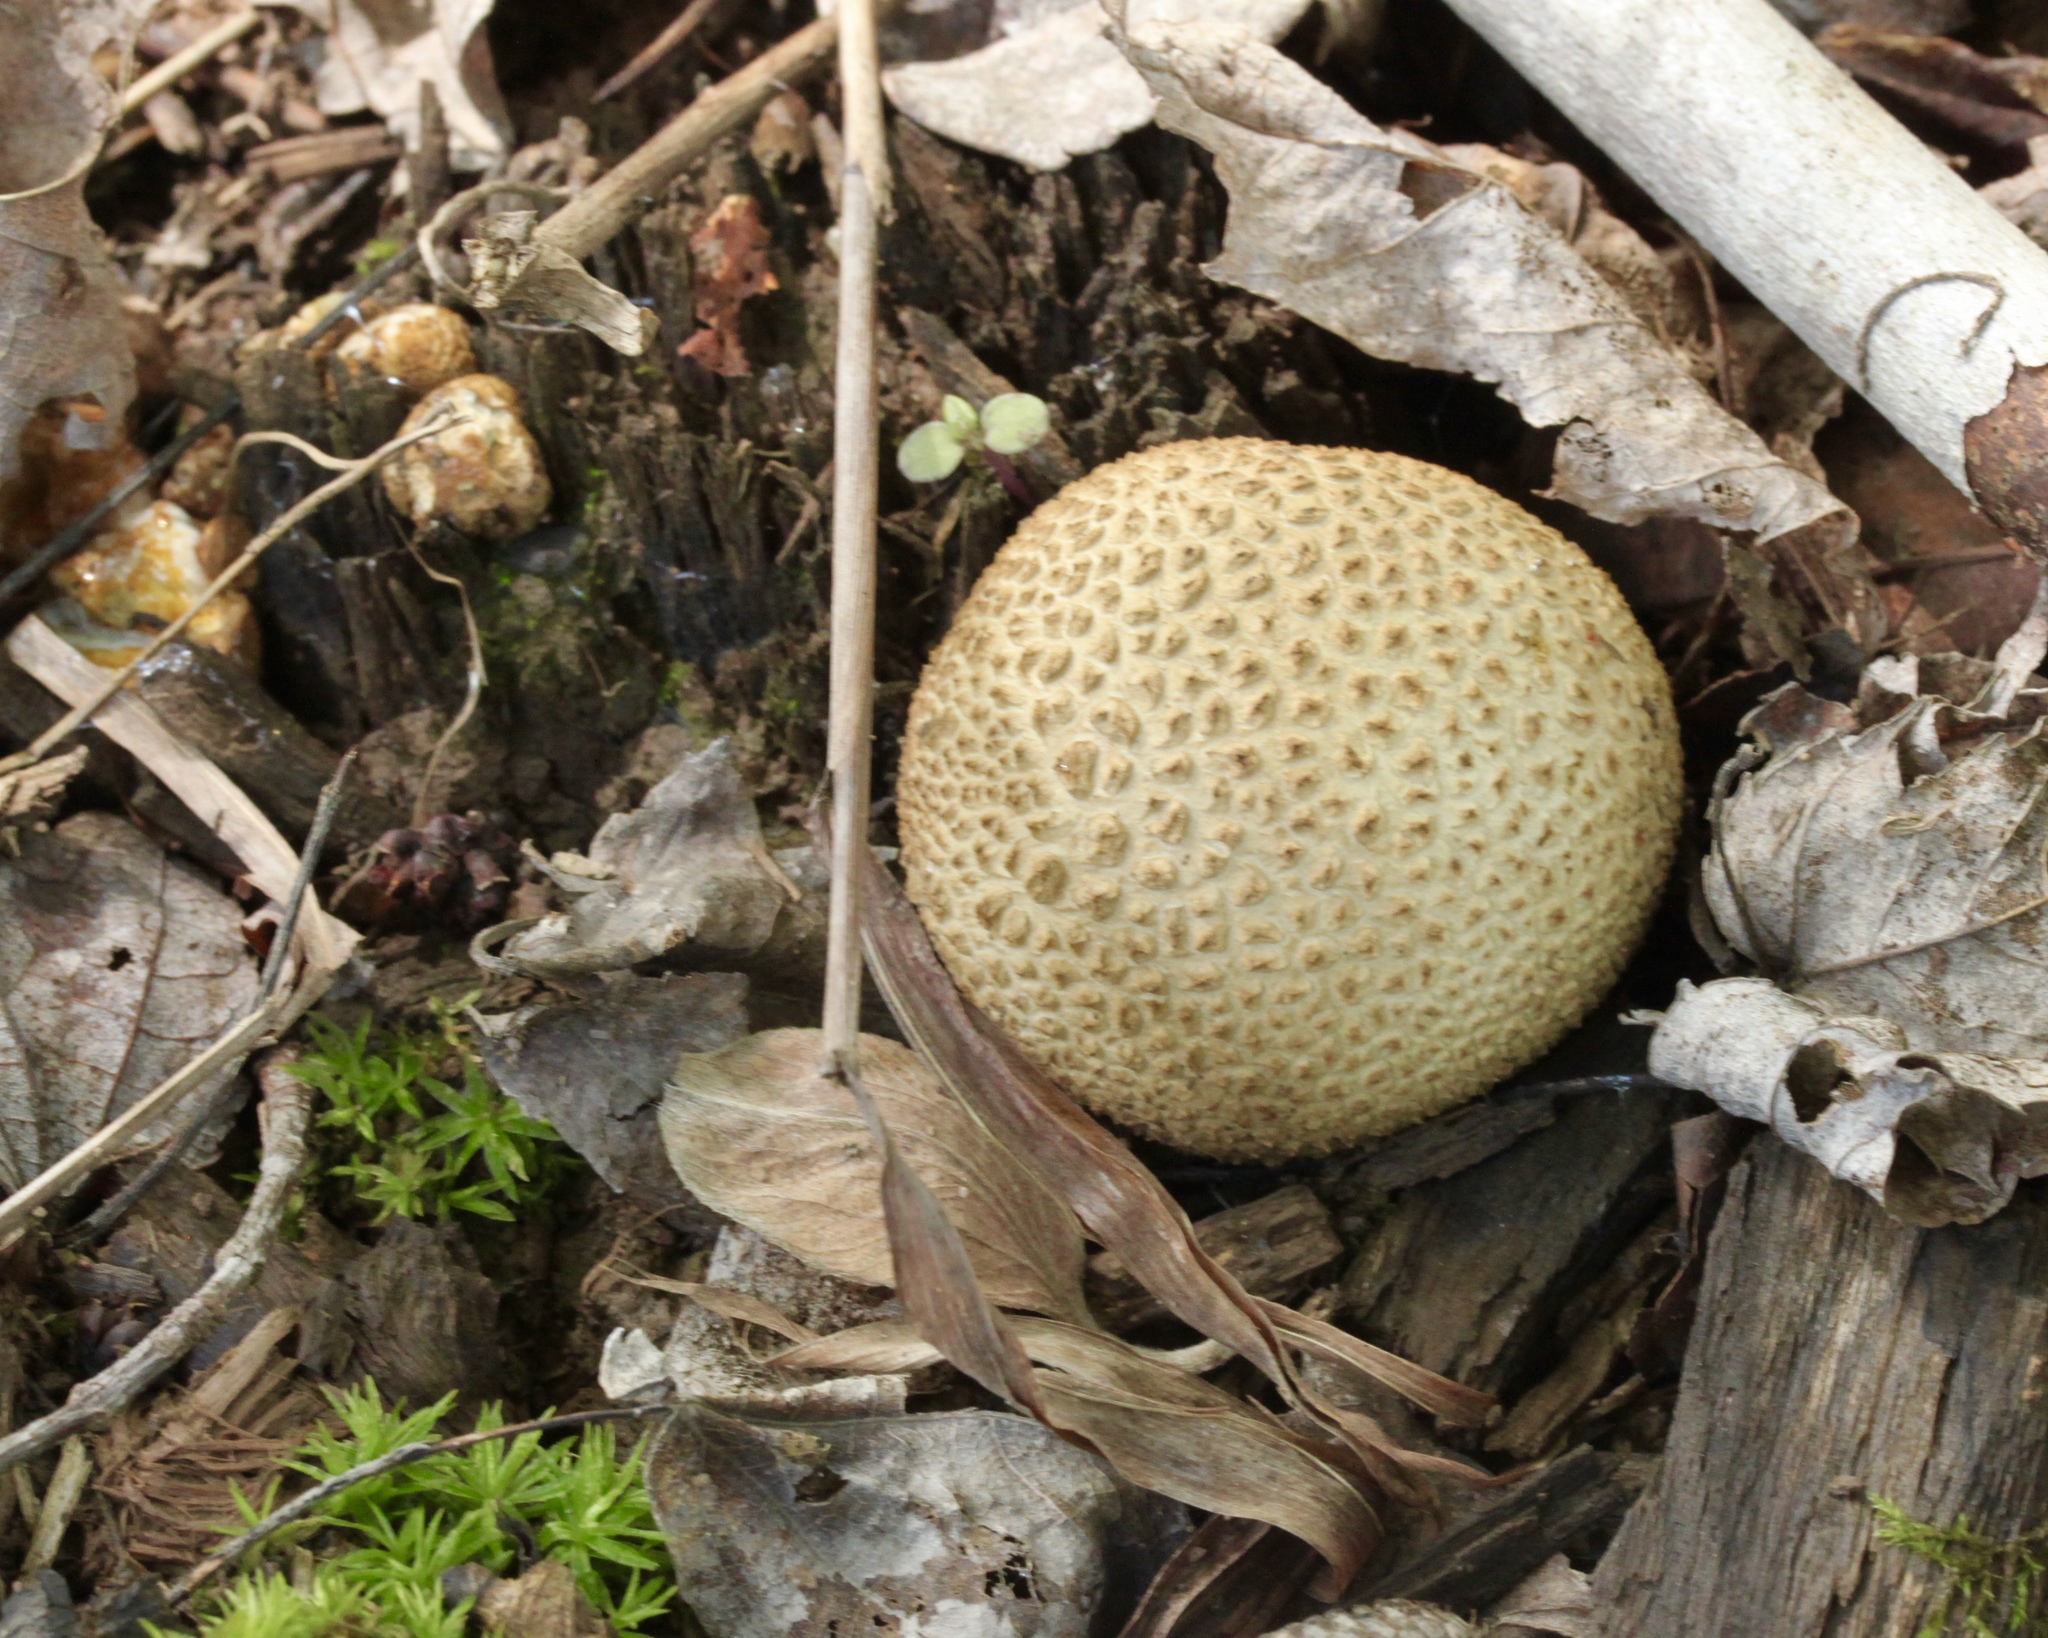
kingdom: Fungi
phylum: Basidiomycota
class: Agaricomycetes
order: Boletales
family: Sclerodermataceae
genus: Scleroderma
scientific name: Scleroderma citrinum
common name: Common earthball
